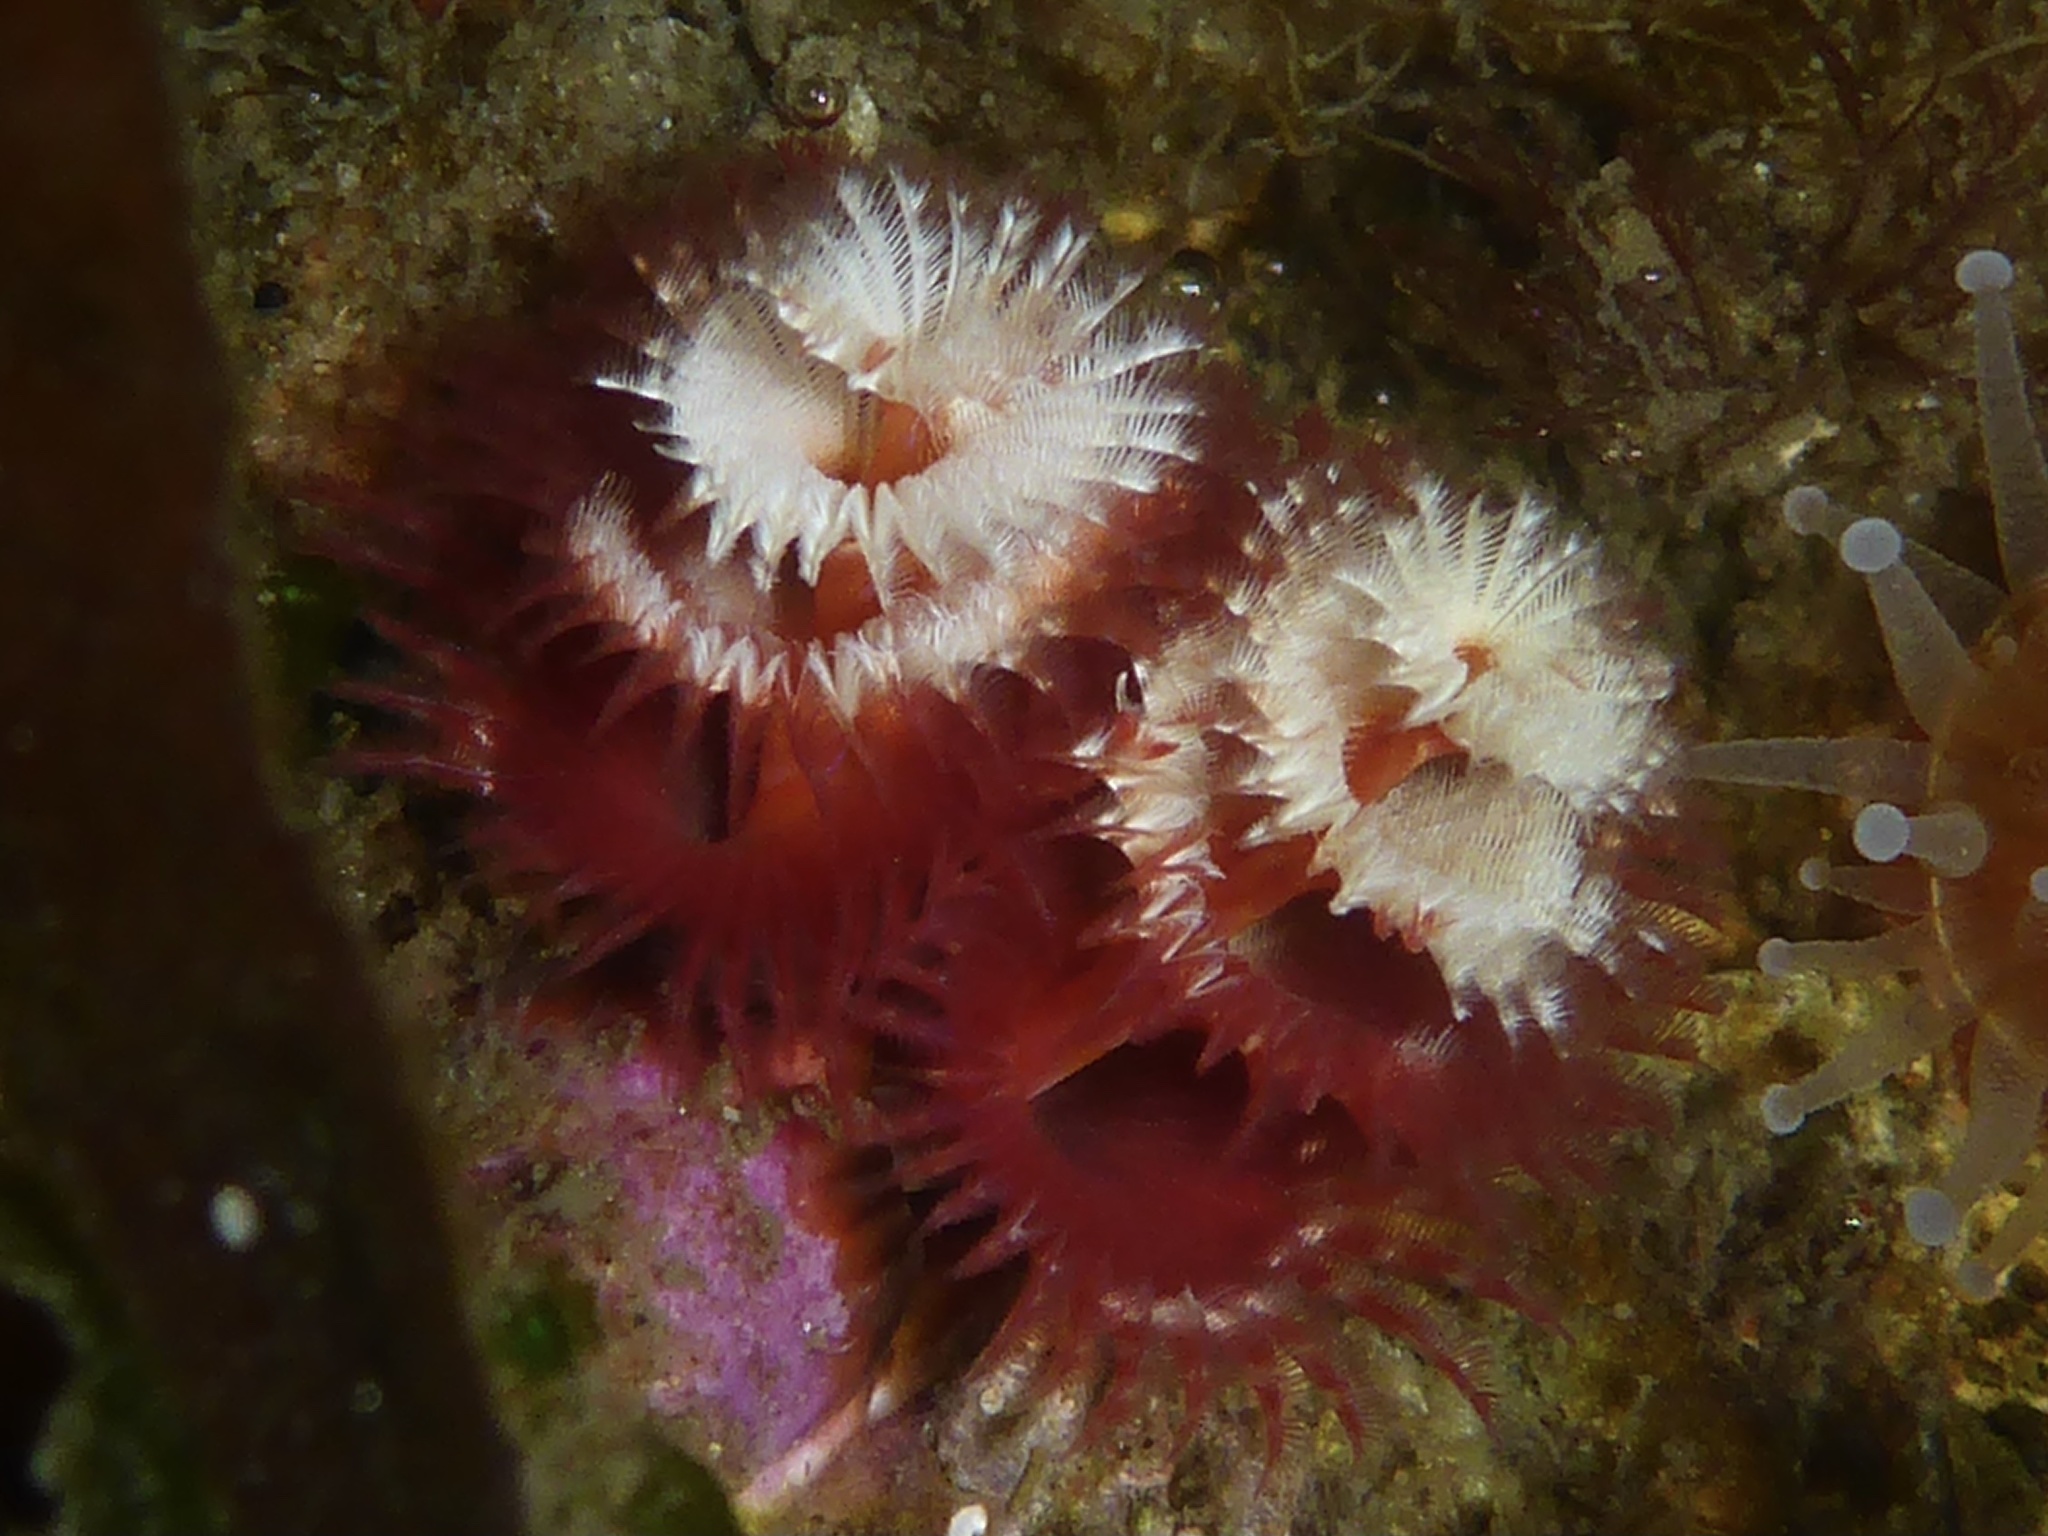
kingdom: Animalia
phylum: Annelida
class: Polychaeta
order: Sabellida
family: Serpulidae
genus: Spirobranchus
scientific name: Spirobranchus spinosus
